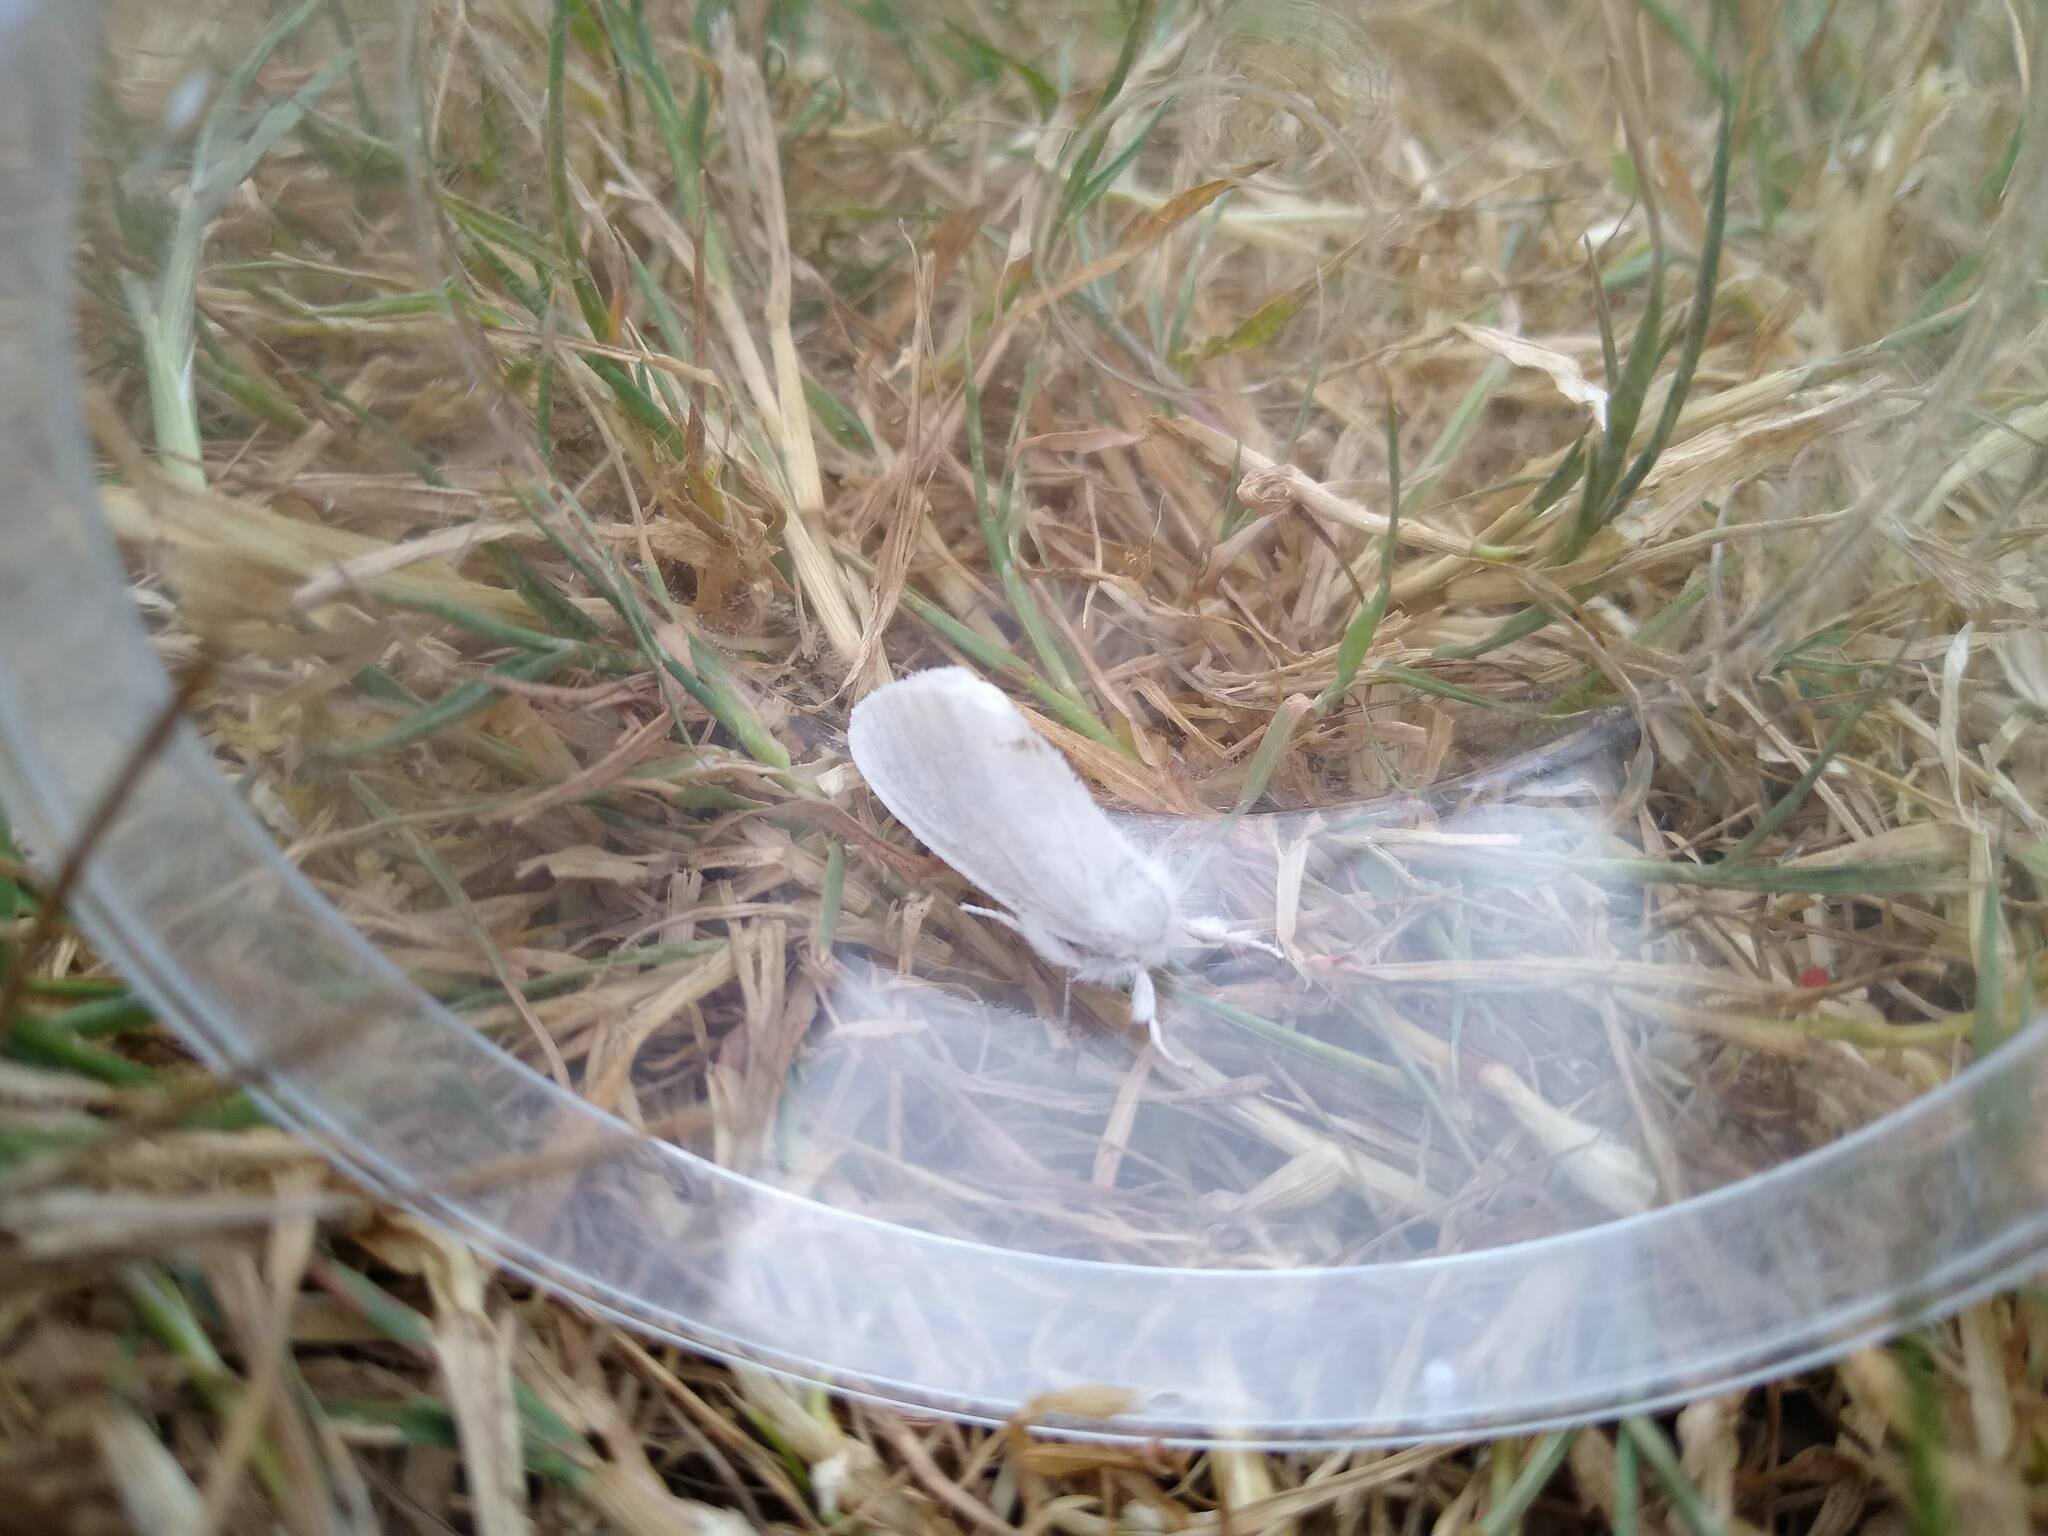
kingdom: Animalia
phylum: Arthropoda
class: Insecta
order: Lepidoptera
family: Erebidae
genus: Sphrageidus
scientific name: Sphrageidus similis
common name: Yellow-tail
